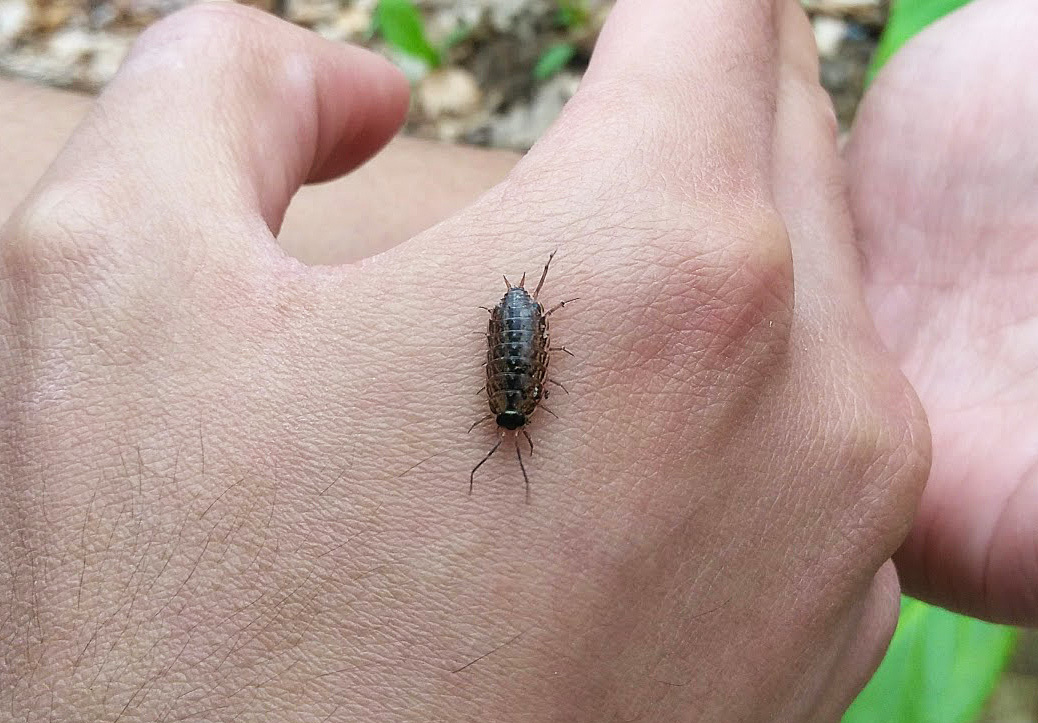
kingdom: Animalia
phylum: Arthropoda
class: Malacostraca
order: Isopoda
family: Philosciidae
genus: Philoscia
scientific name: Philoscia muscorum
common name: Common striped woodlouse
